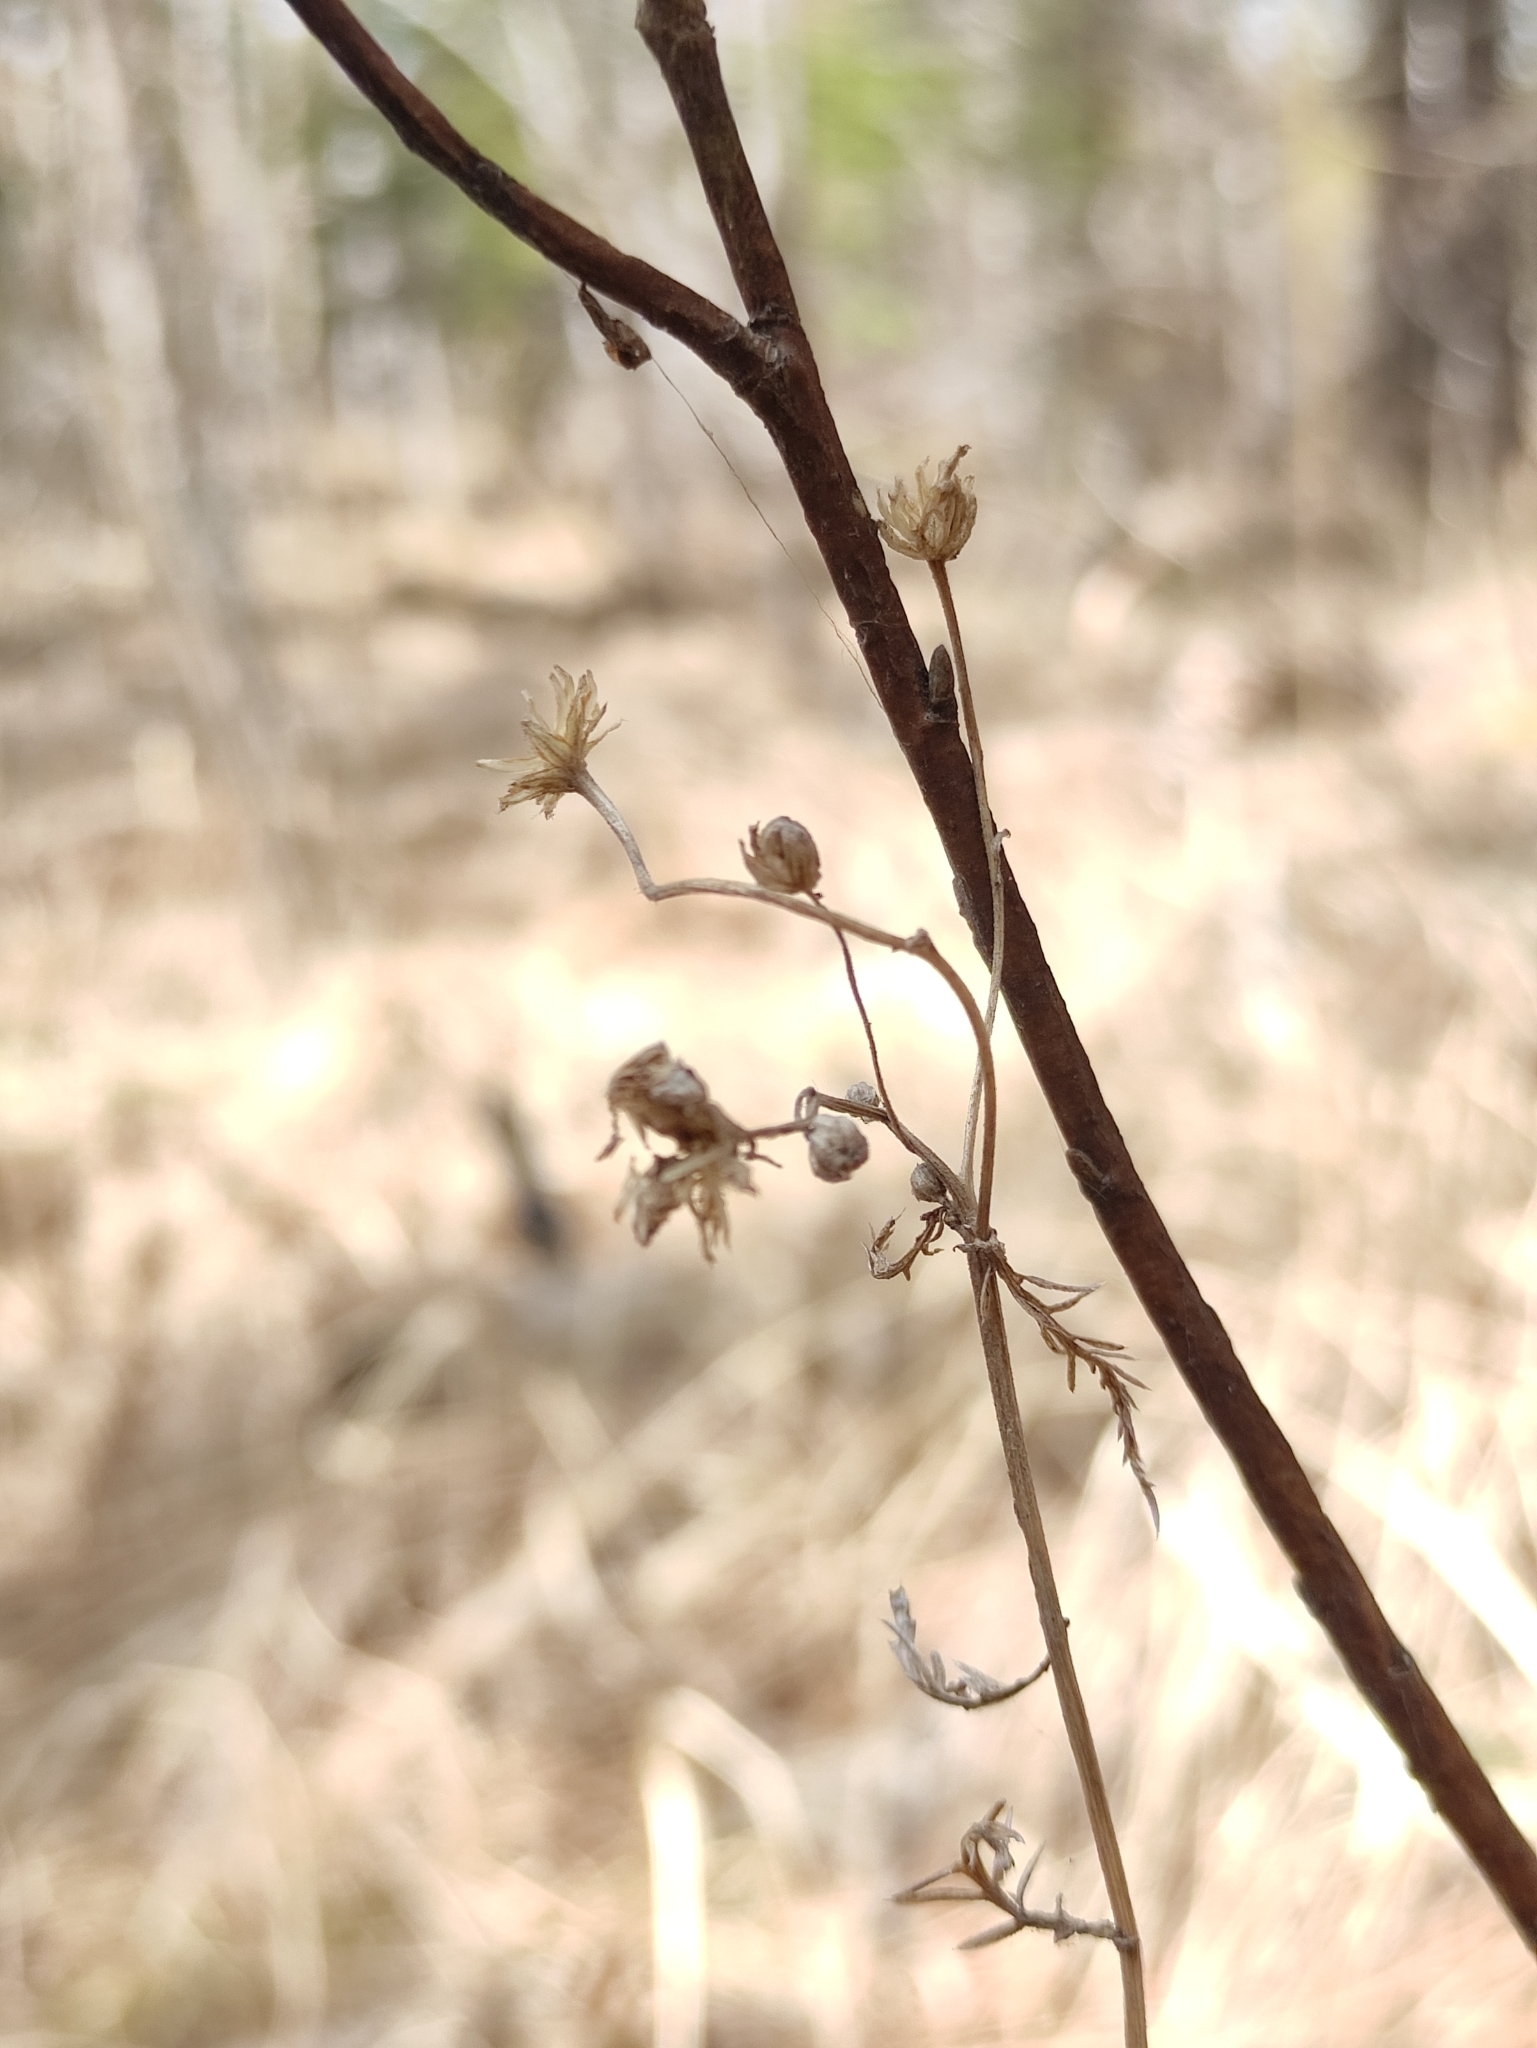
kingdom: Plantae
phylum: Tracheophyta
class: Magnoliopsida
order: Asterales
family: Asteraceae
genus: Achillea
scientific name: Achillea impatiens
